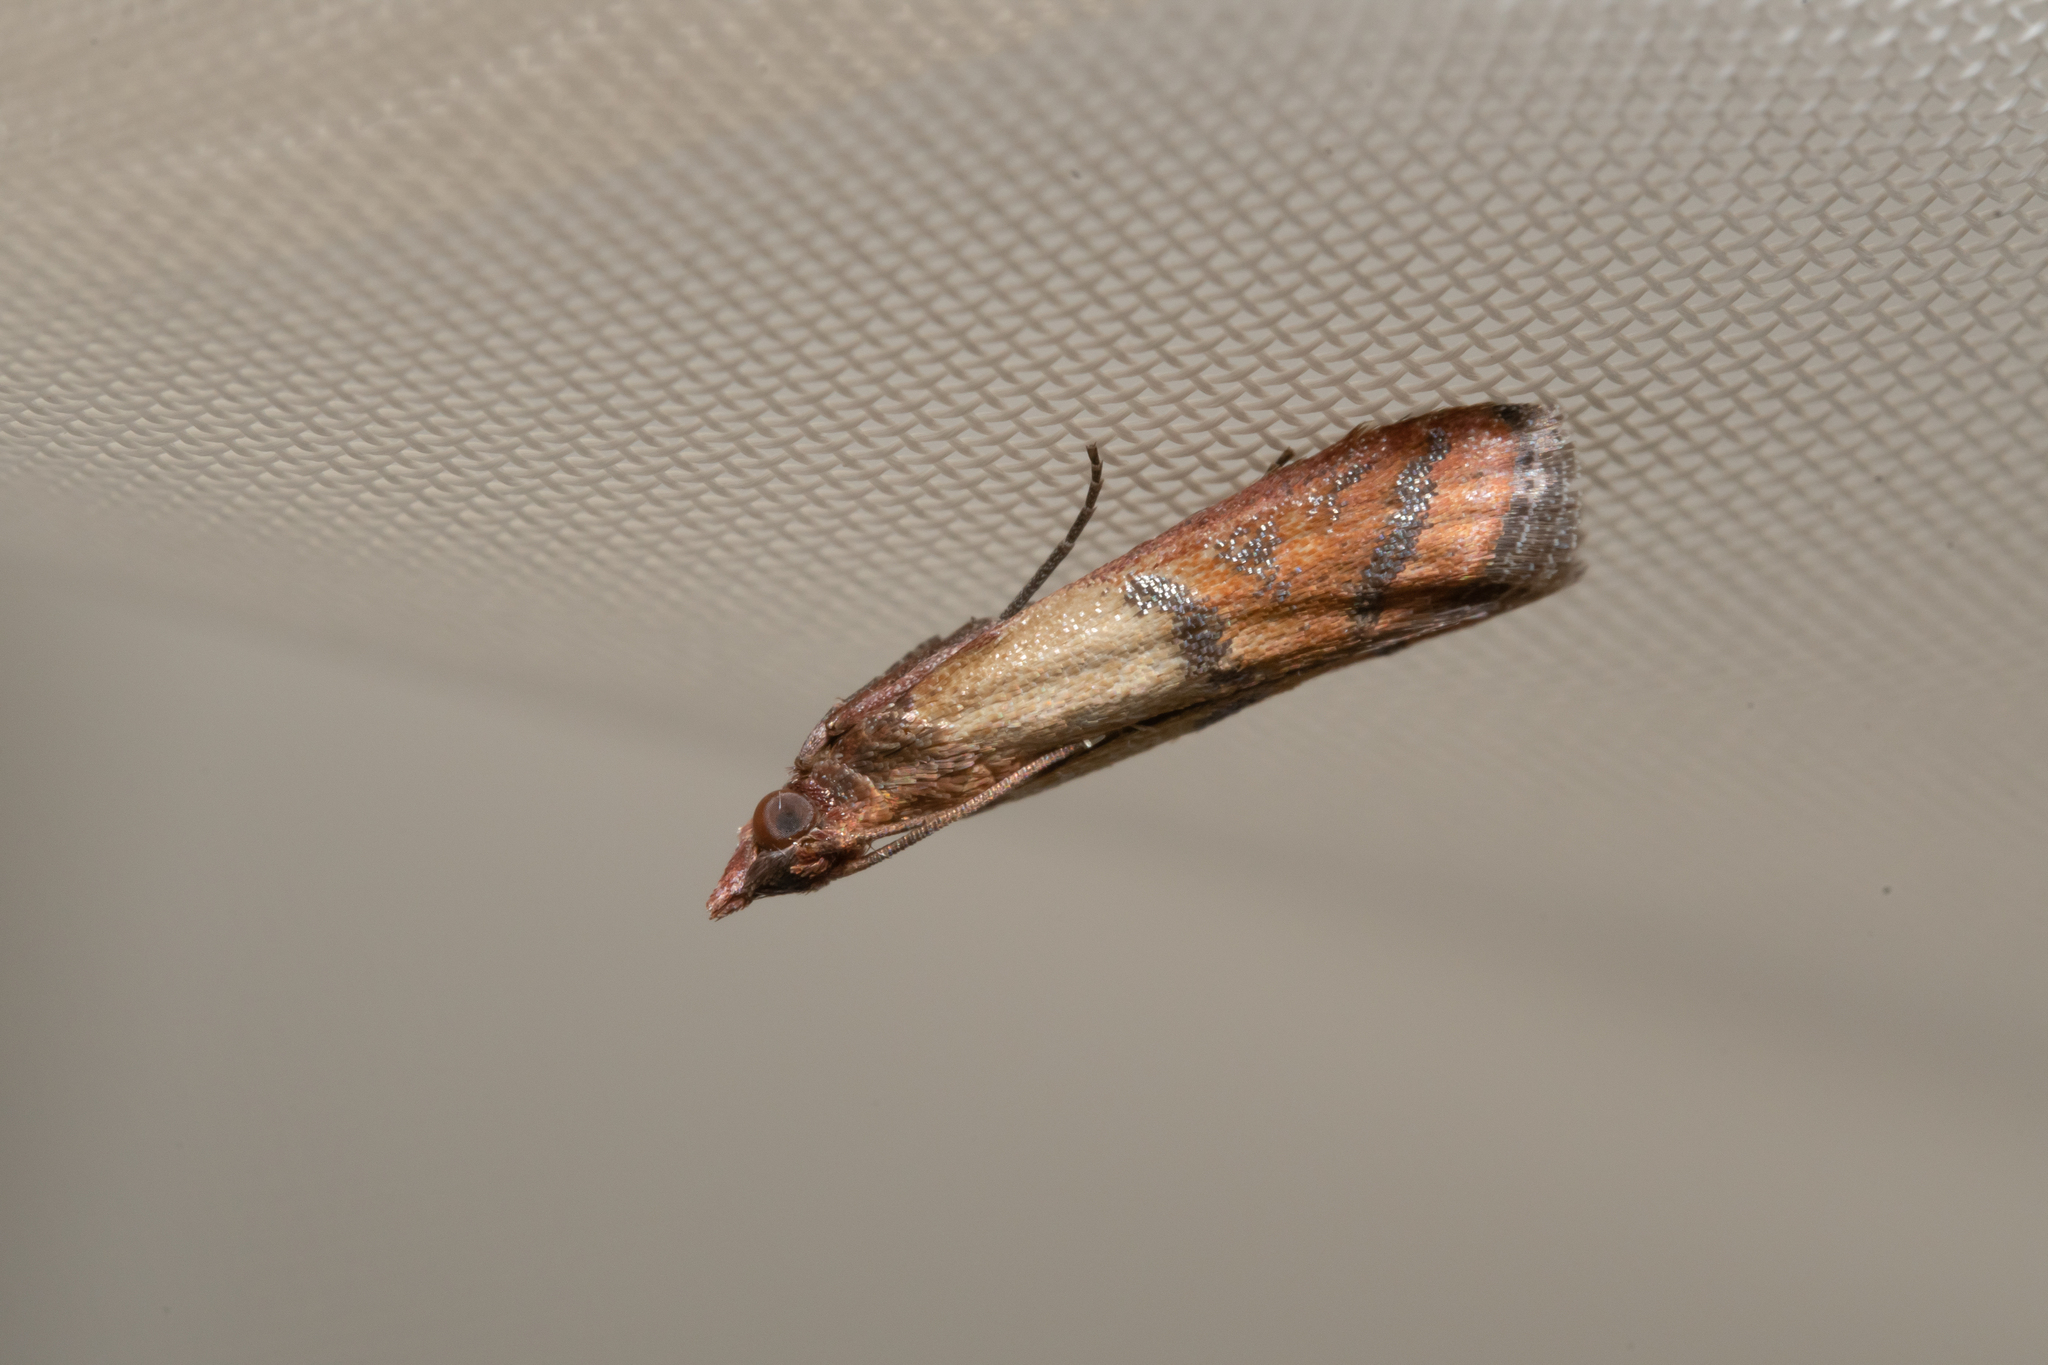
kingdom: Animalia
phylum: Arthropoda
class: Insecta
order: Lepidoptera
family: Pyralidae
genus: Plodia
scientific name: Plodia interpunctella
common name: Indian meal moth
